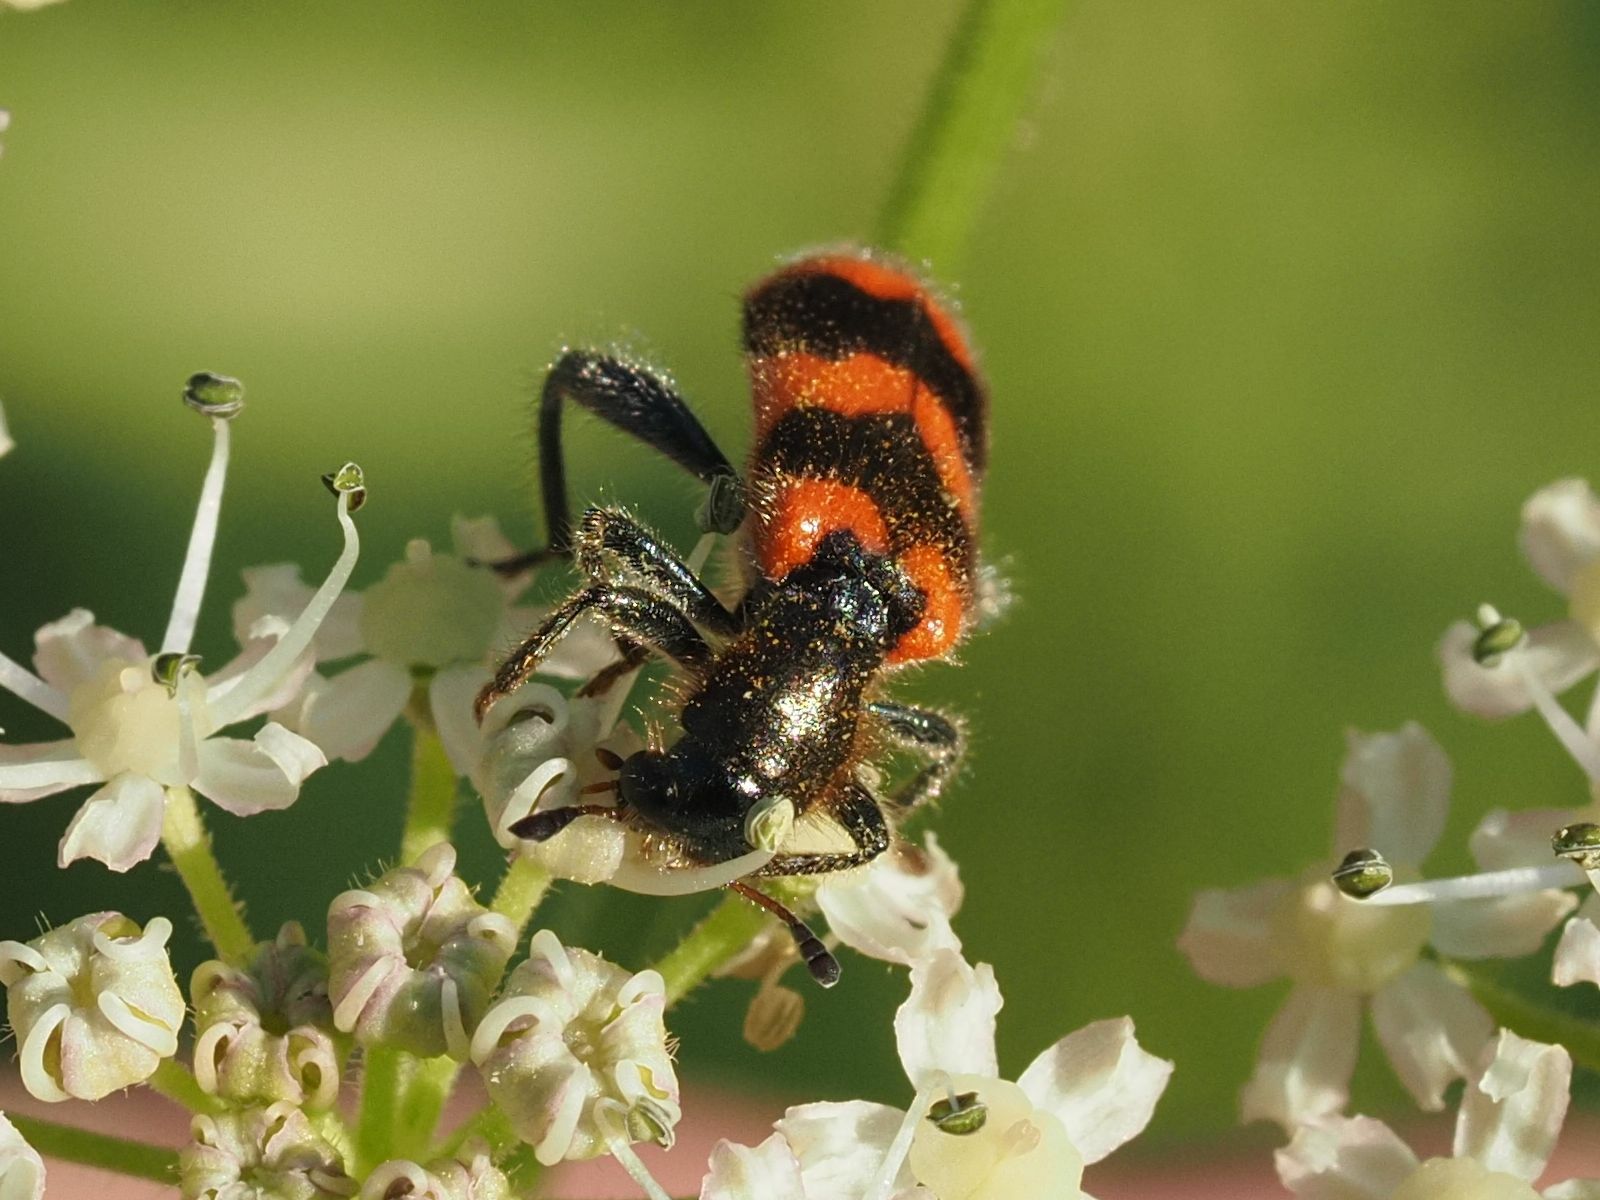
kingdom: Animalia
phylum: Arthropoda
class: Insecta
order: Coleoptera
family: Cleridae
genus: Trichodes
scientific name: Trichodes apiarius
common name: Bee-eating beetle
